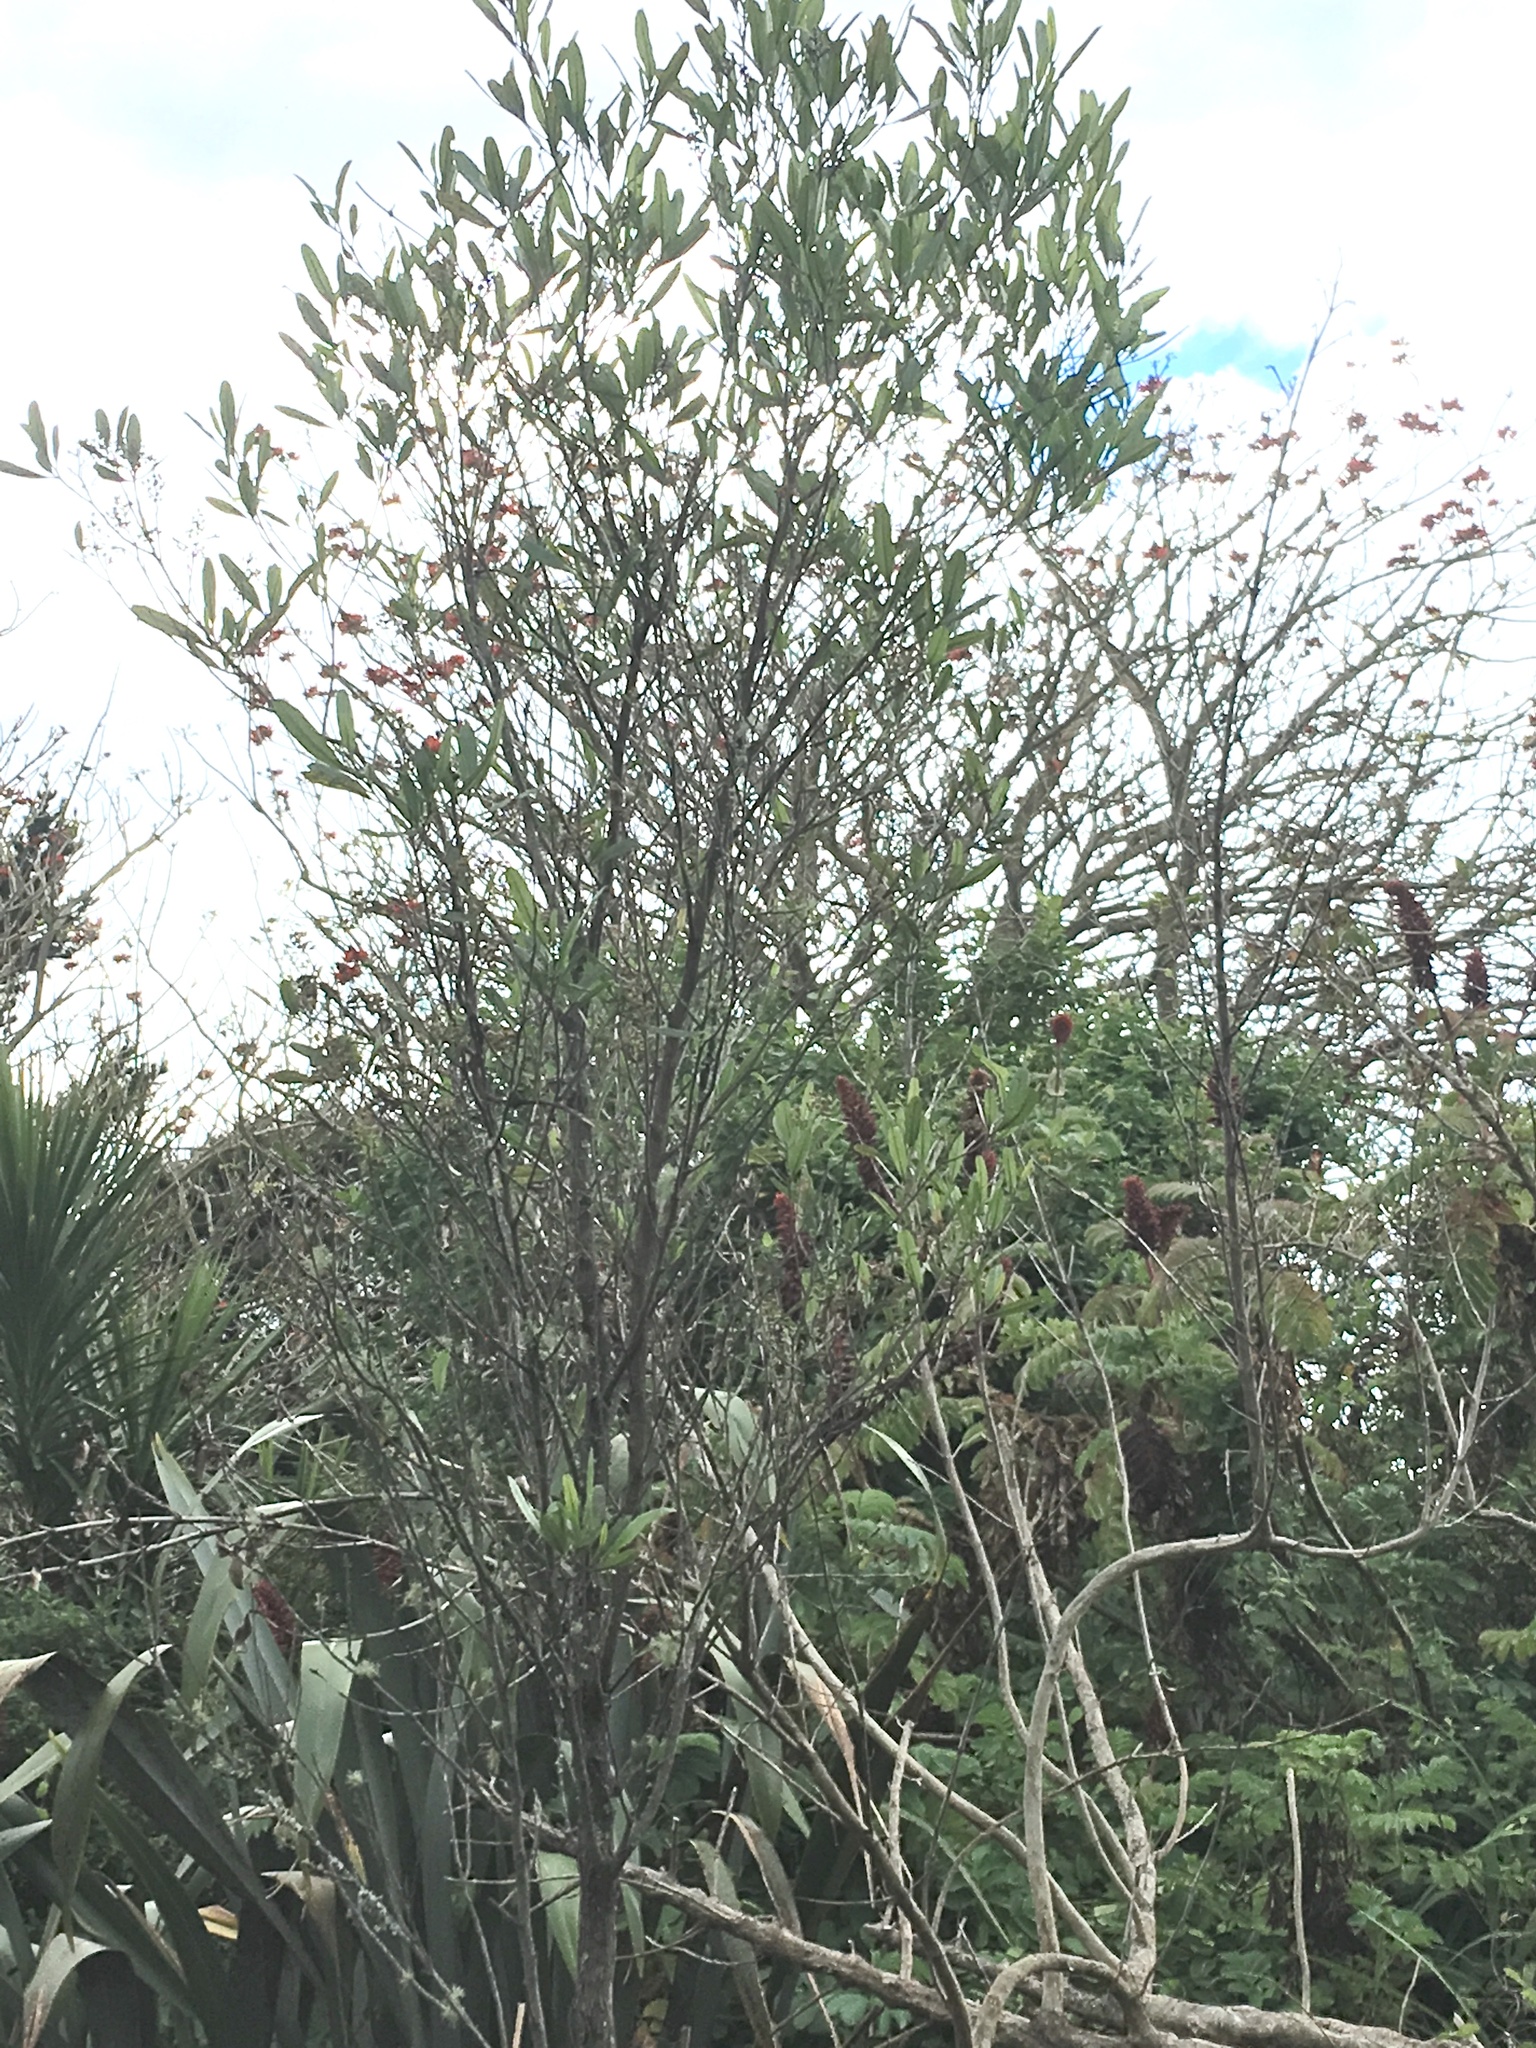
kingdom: Plantae
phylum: Tracheophyta
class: Magnoliopsida
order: Sapindales
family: Sapindaceae
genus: Dodonaea
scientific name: Dodonaea viscosa
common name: Hopbush
